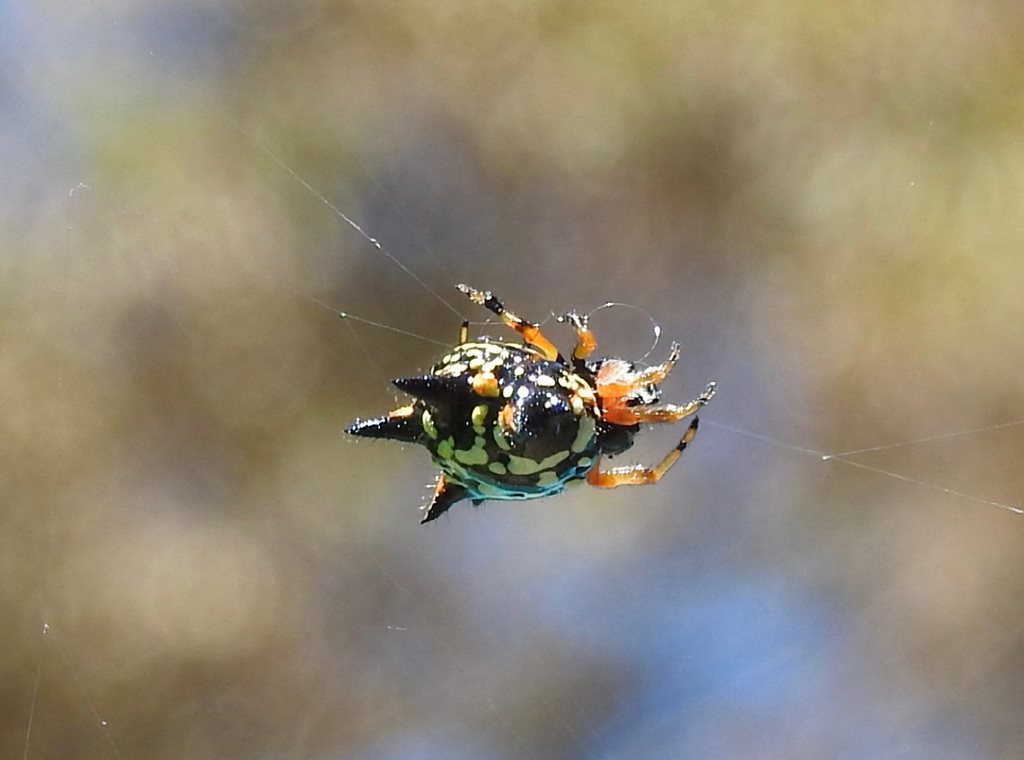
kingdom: Animalia
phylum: Arthropoda
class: Arachnida
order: Araneae
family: Araneidae
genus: Austracantha
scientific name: Austracantha minax
